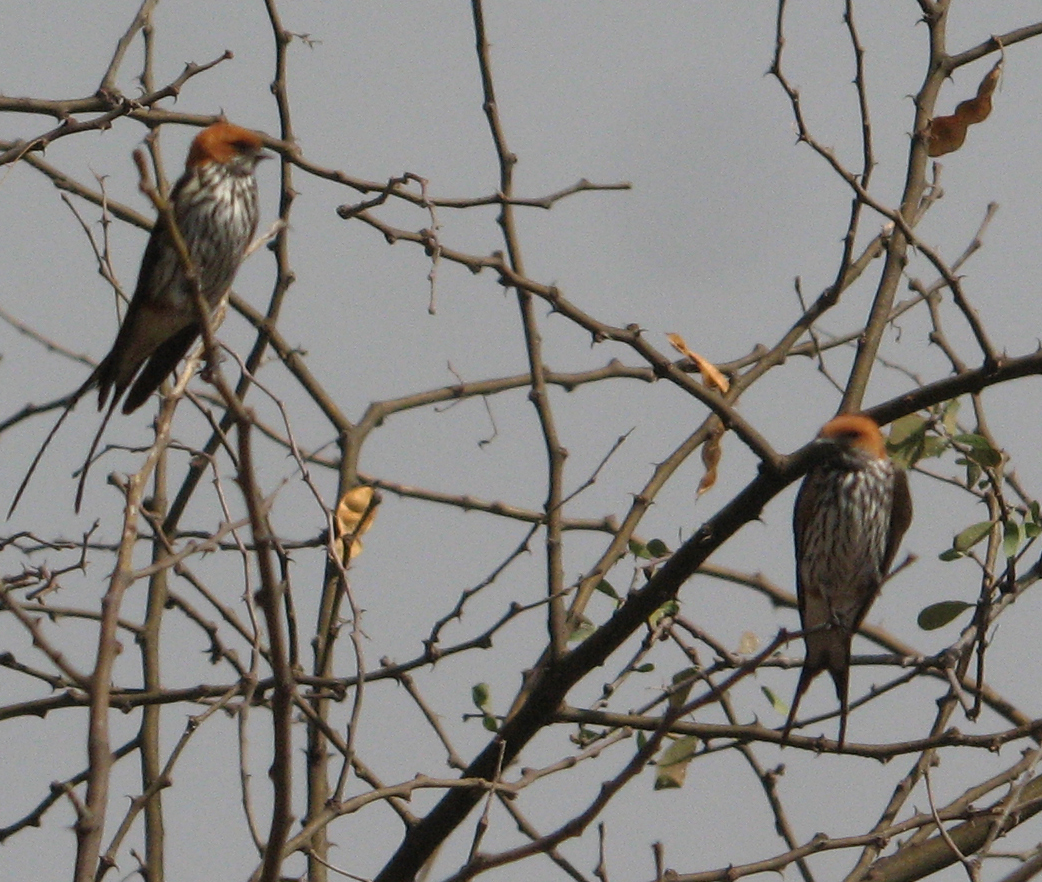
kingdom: Animalia
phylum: Chordata
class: Aves
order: Passeriformes
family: Hirundinidae
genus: Cecropis
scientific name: Cecropis abyssinica
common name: Lesser striped-swallow
